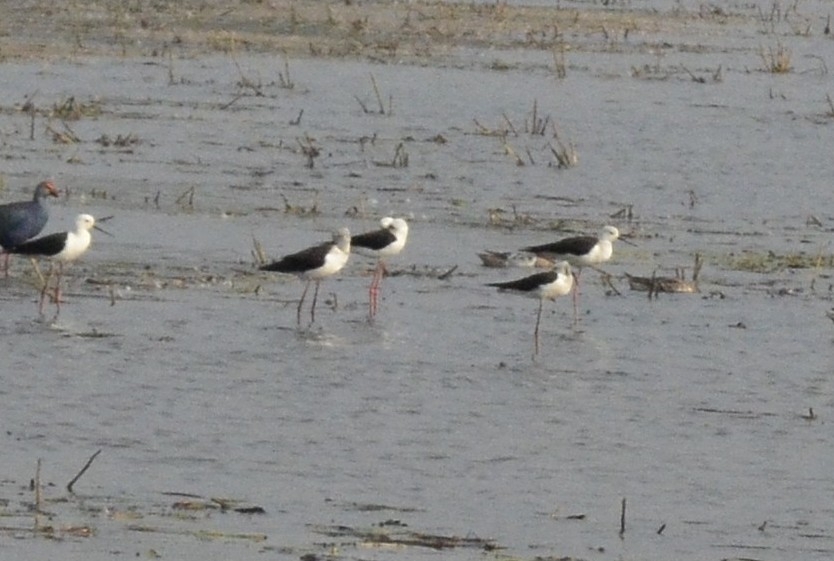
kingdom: Animalia
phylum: Chordata
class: Aves
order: Charadriiformes
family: Recurvirostridae
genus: Himantopus
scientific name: Himantopus himantopus
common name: Black-winged stilt
